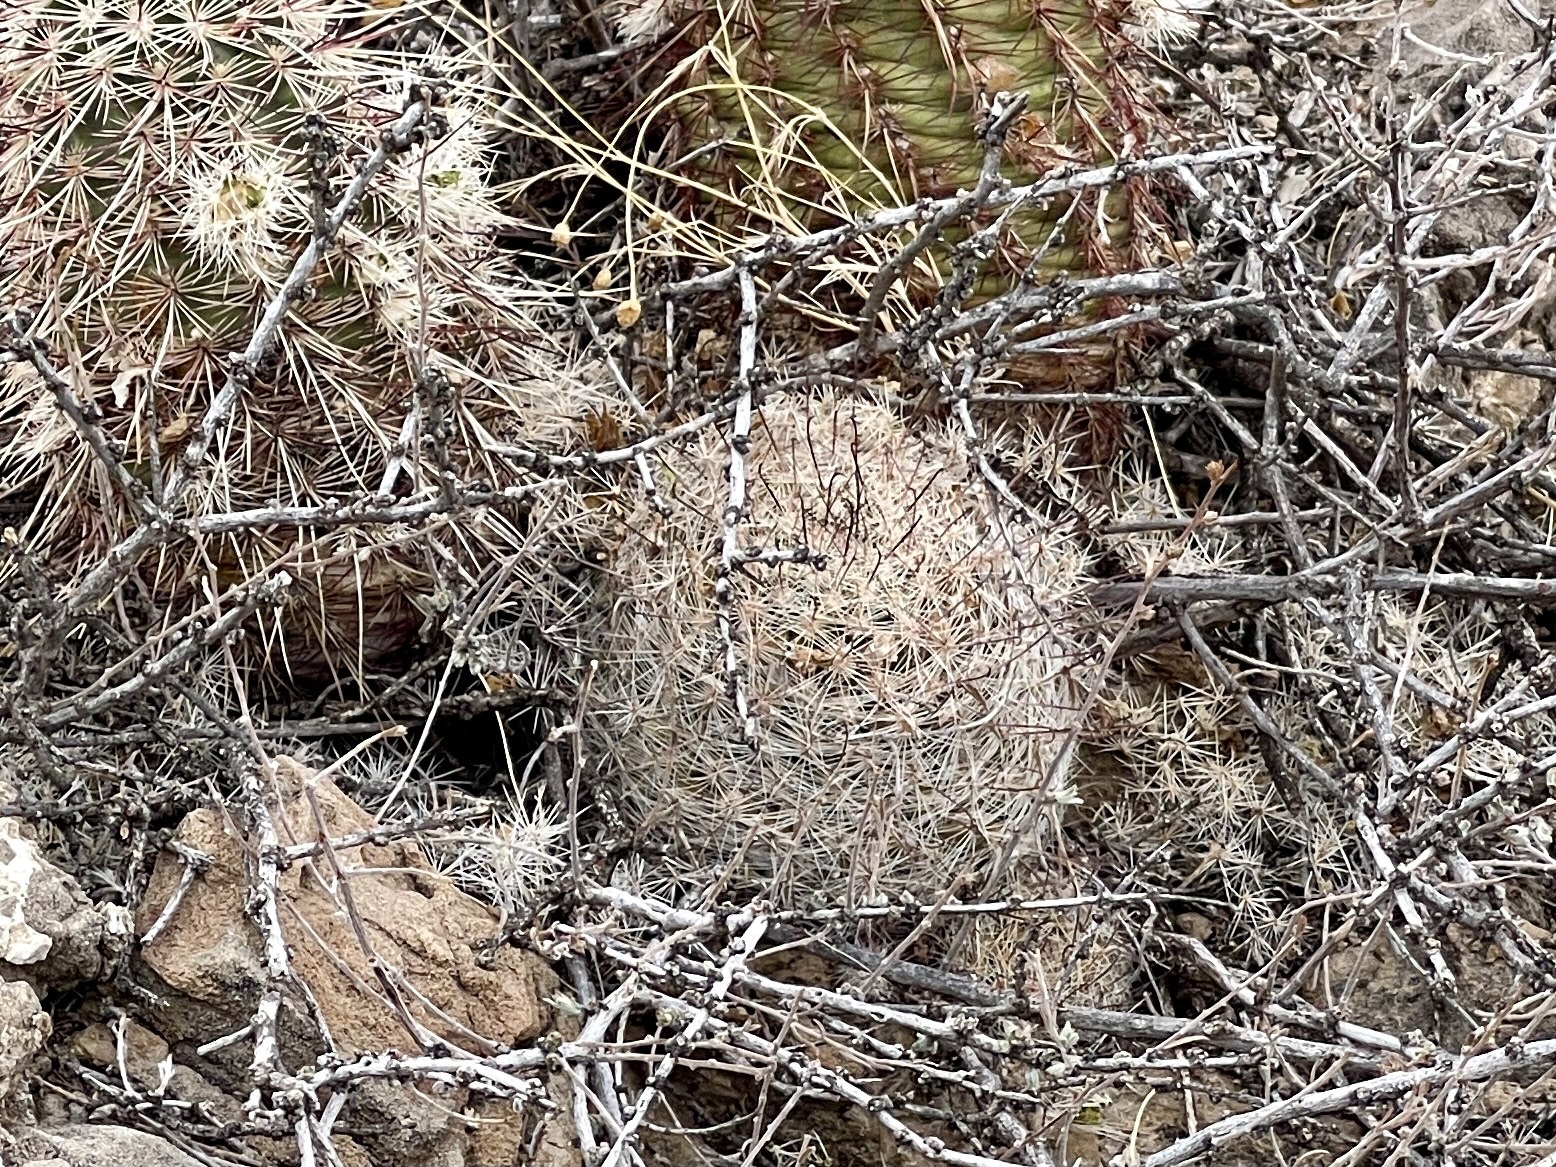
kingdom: Plantae
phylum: Tracheophyta
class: Magnoliopsida
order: Caryophyllales
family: Cactaceae
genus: Cochemiea
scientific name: Cochemiea grahamii
